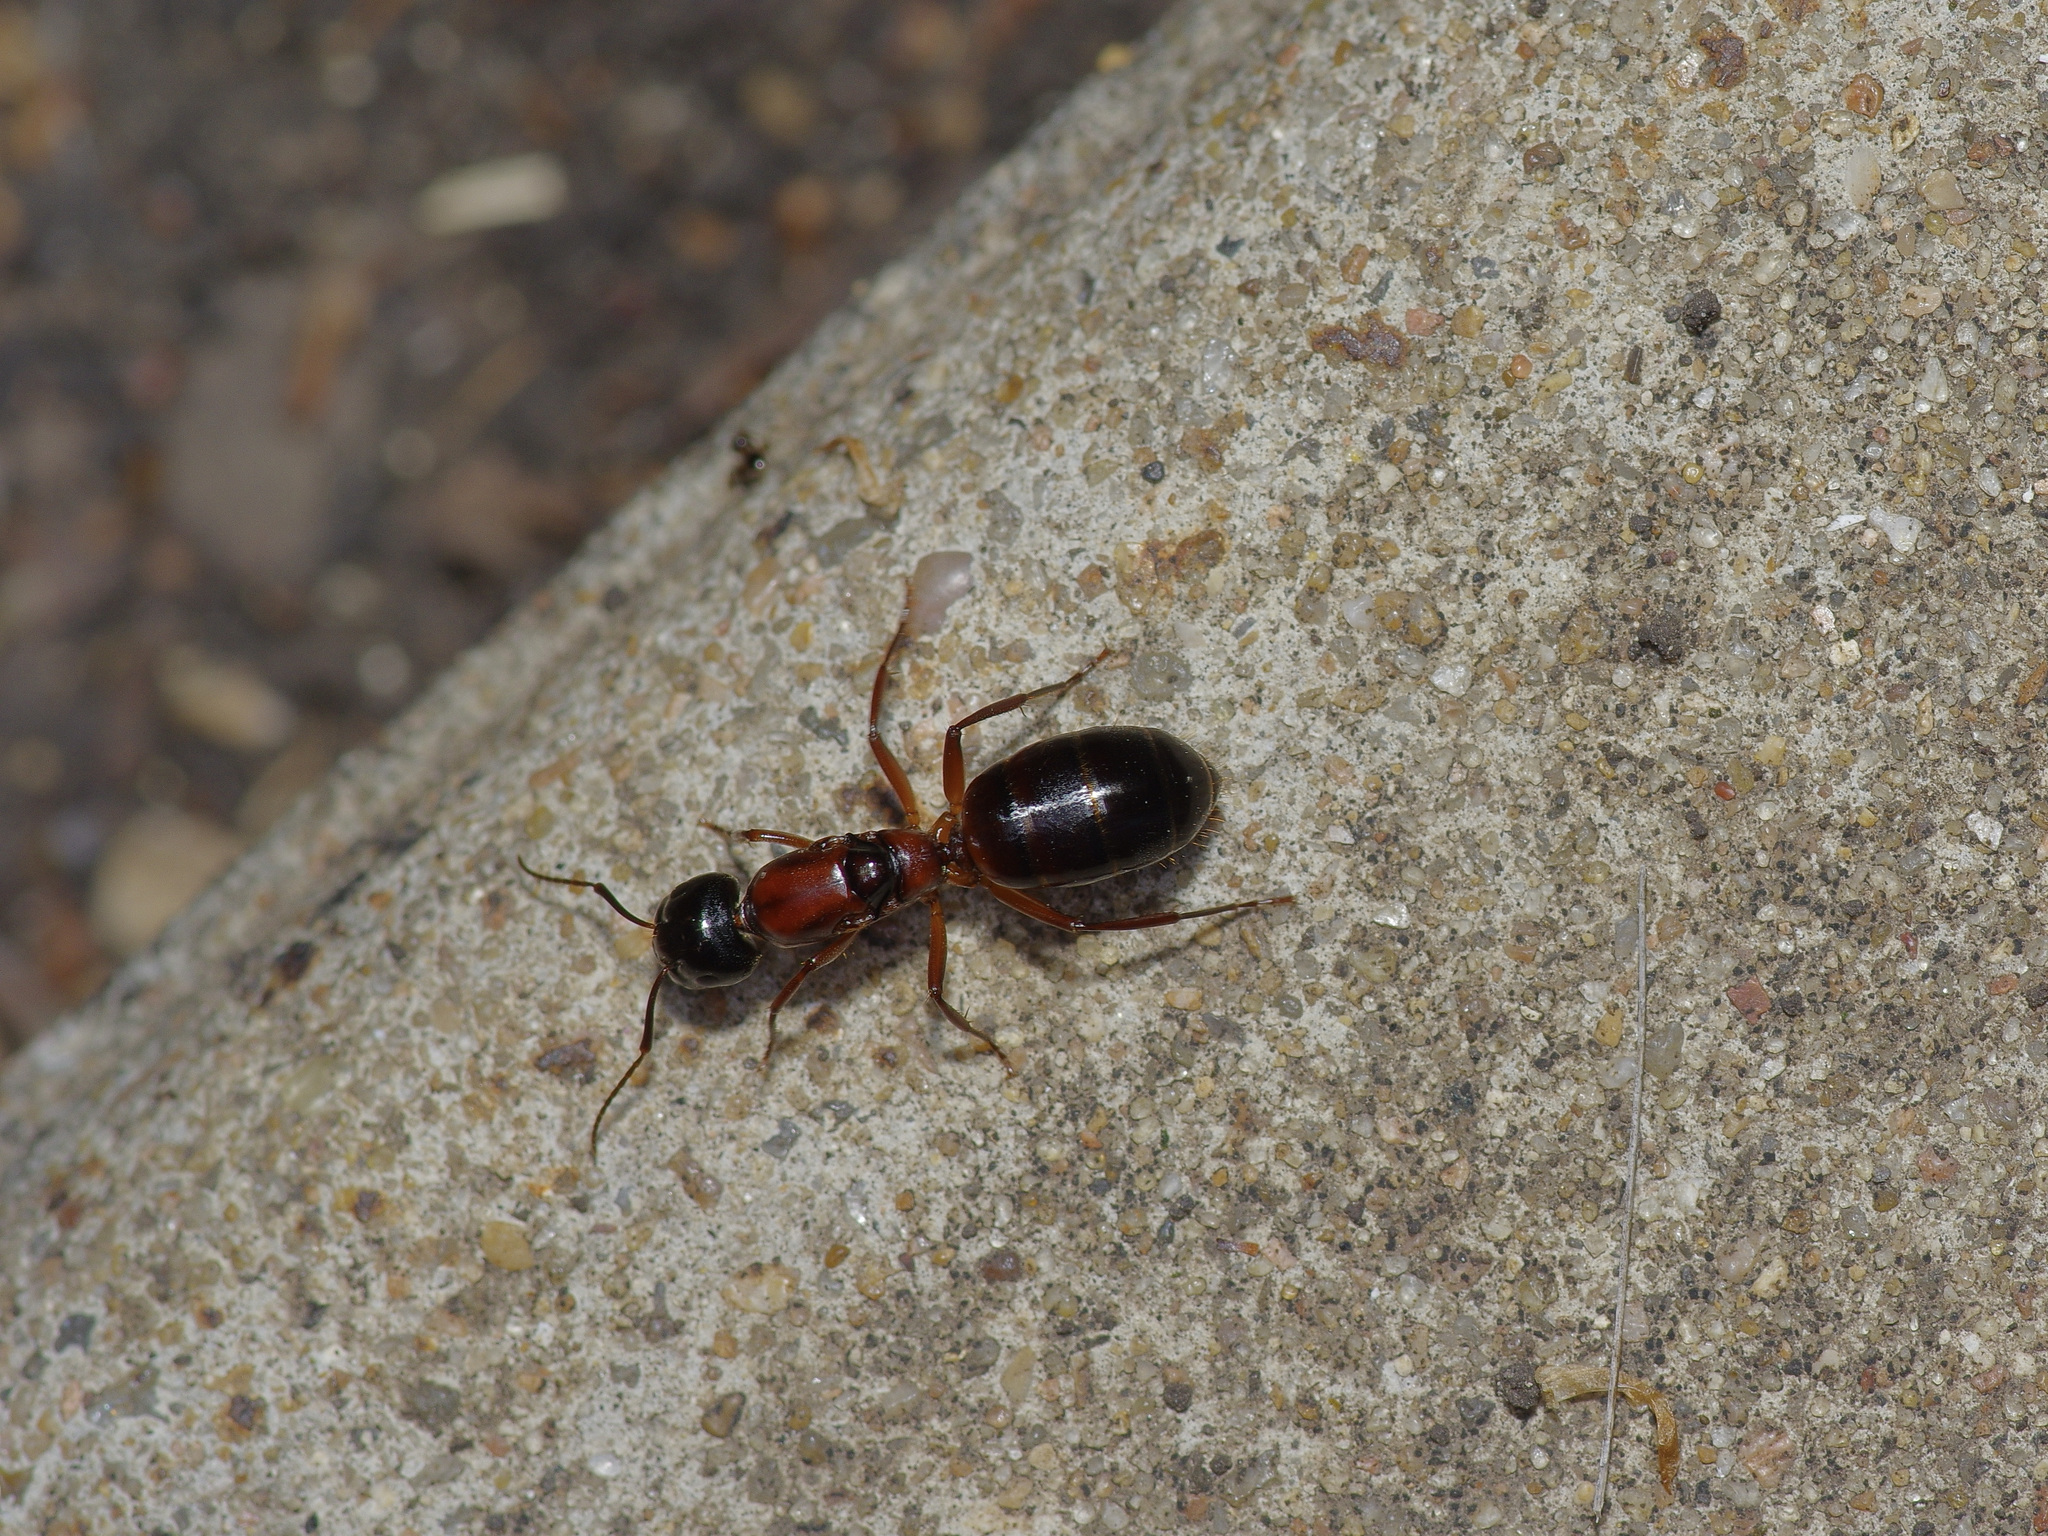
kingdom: Animalia
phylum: Arthropoda
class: Insecta
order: Hymenoptera
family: Formicidae
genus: Camponotus
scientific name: Camponotus texanus
